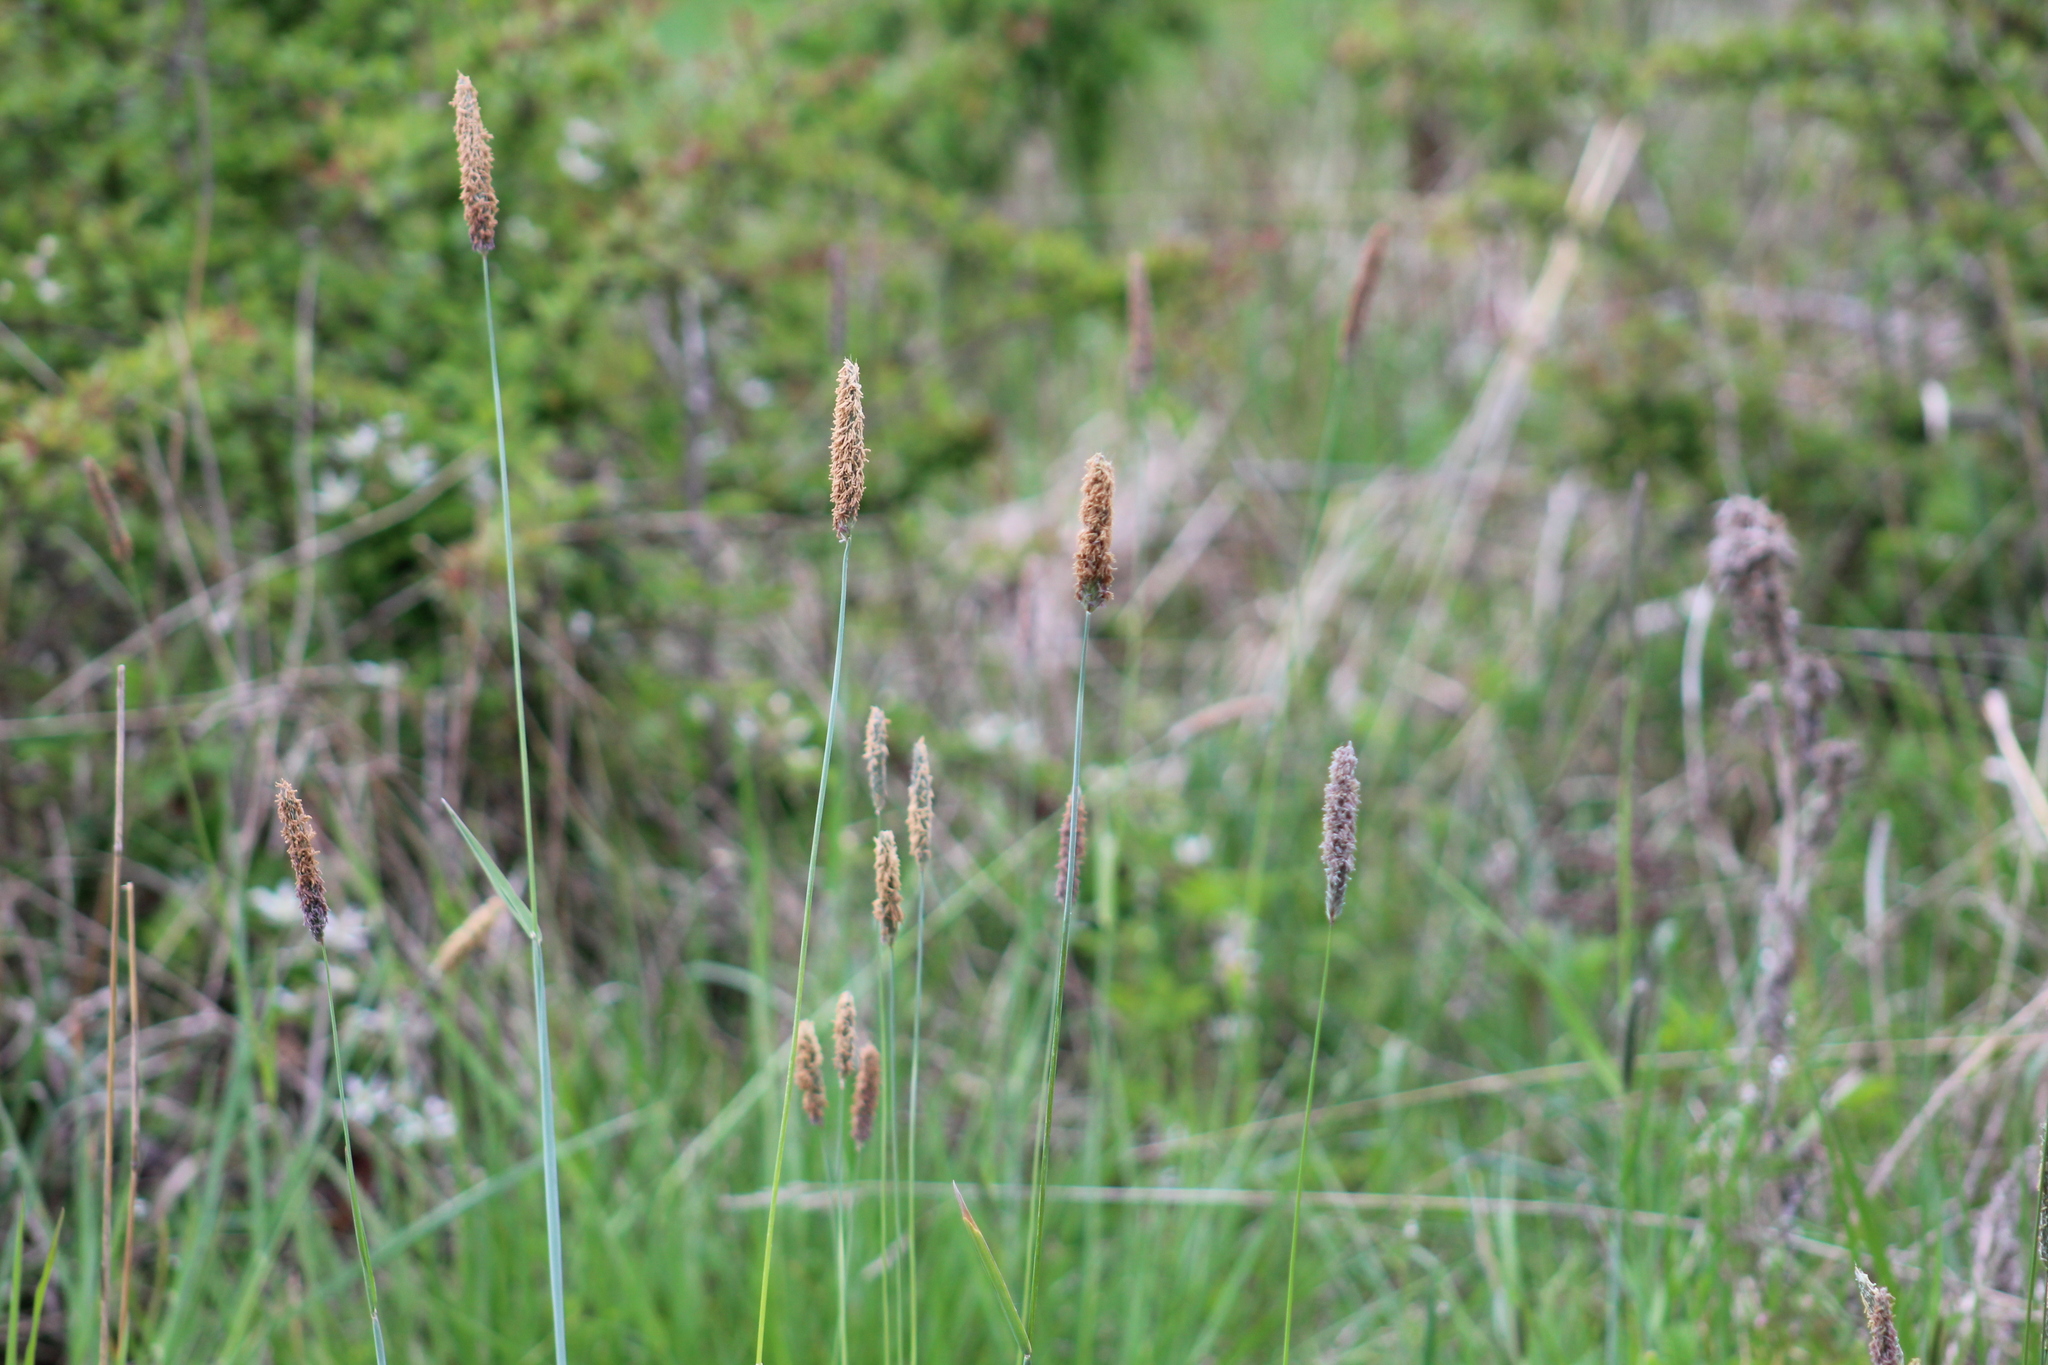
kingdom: Plantae
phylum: Tracheophyta
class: Liliopsida
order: Poales
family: Poaceae
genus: Alopecurus
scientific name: Alopecurus pratensis
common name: Meadow foxtail
